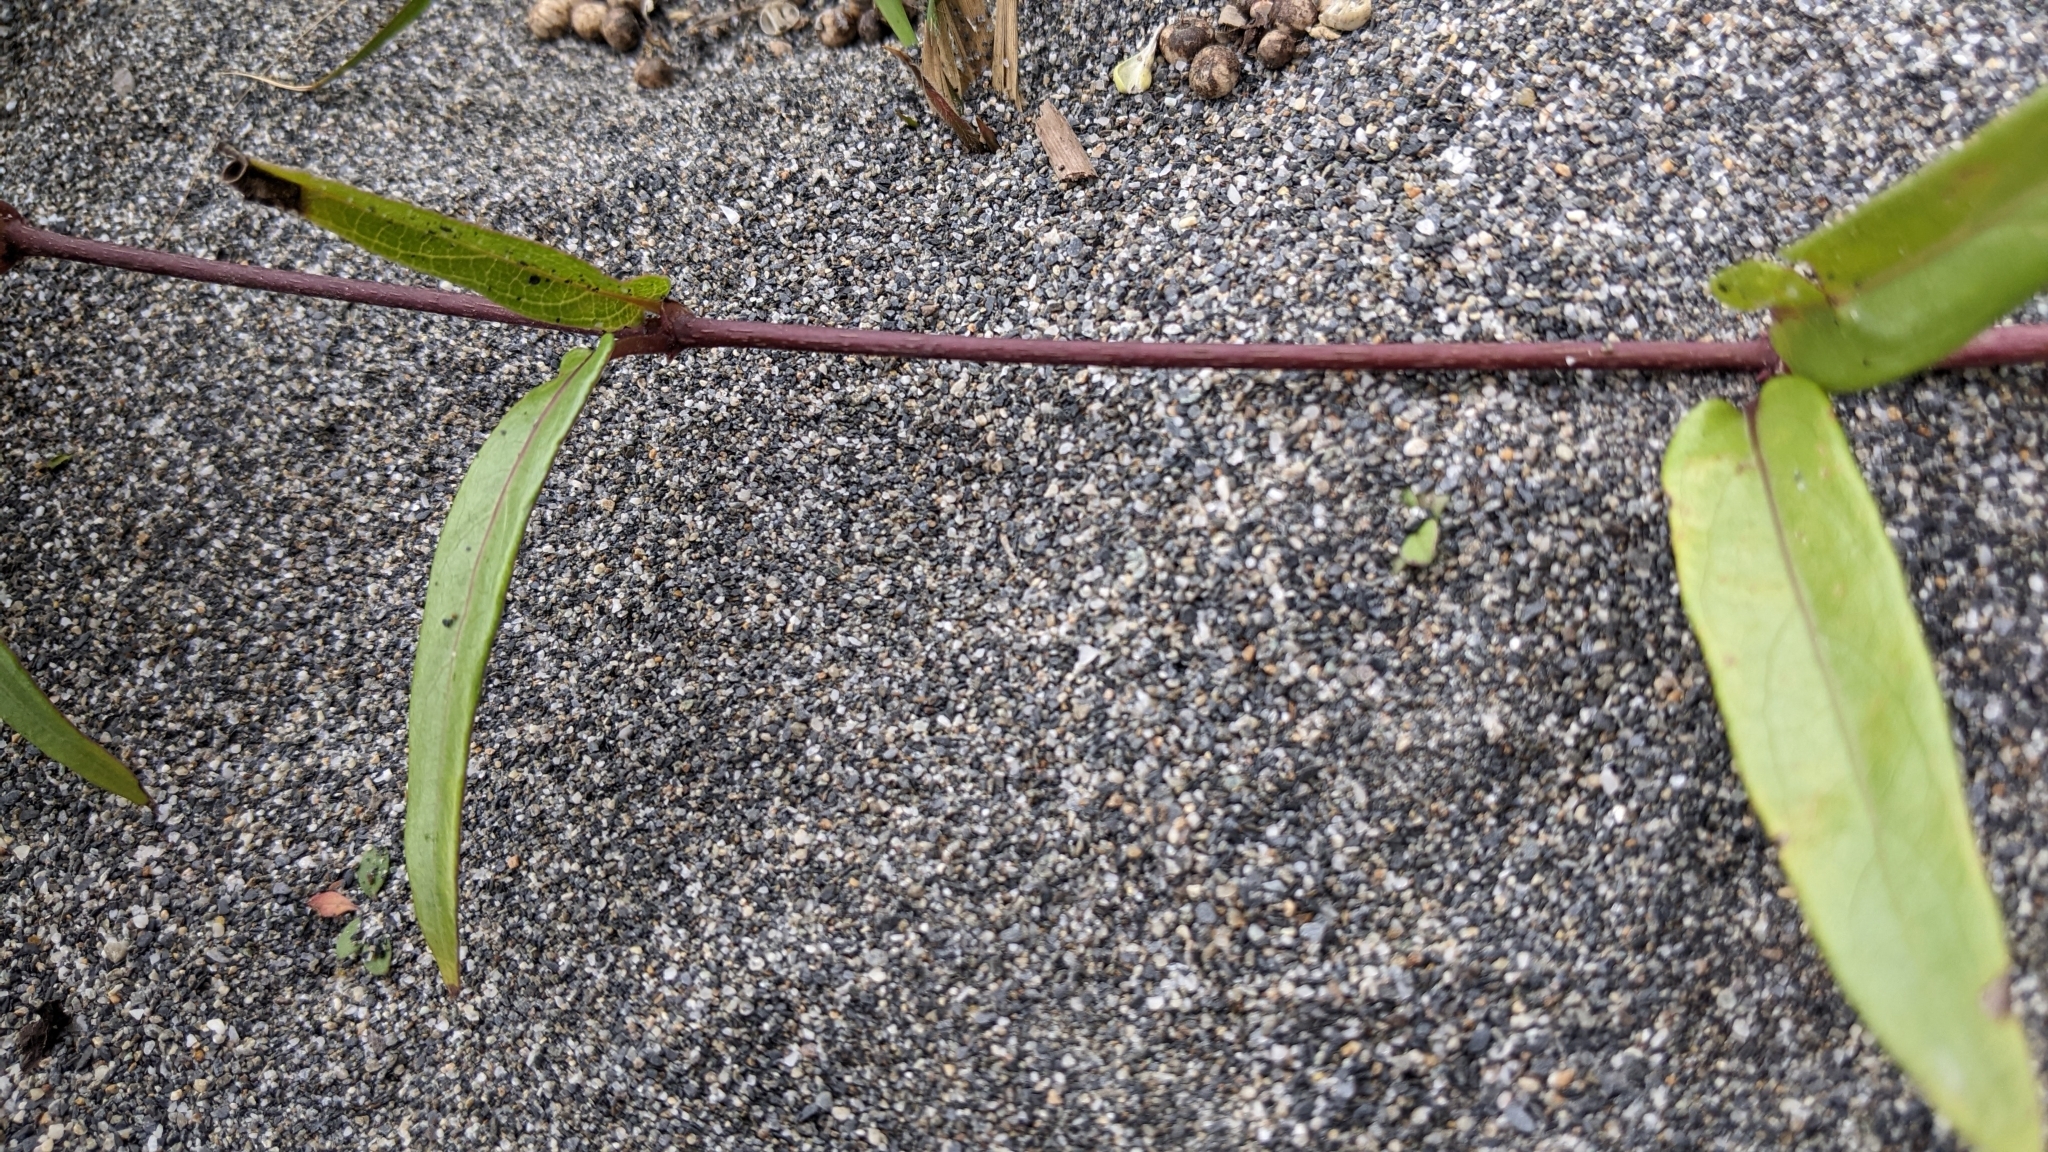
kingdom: Plantae
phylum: Tracheophyta
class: Magnoliopsida
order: Gentianales
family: Rubiaceae
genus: Paederia
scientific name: Paederia foetida
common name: Stinkvine
